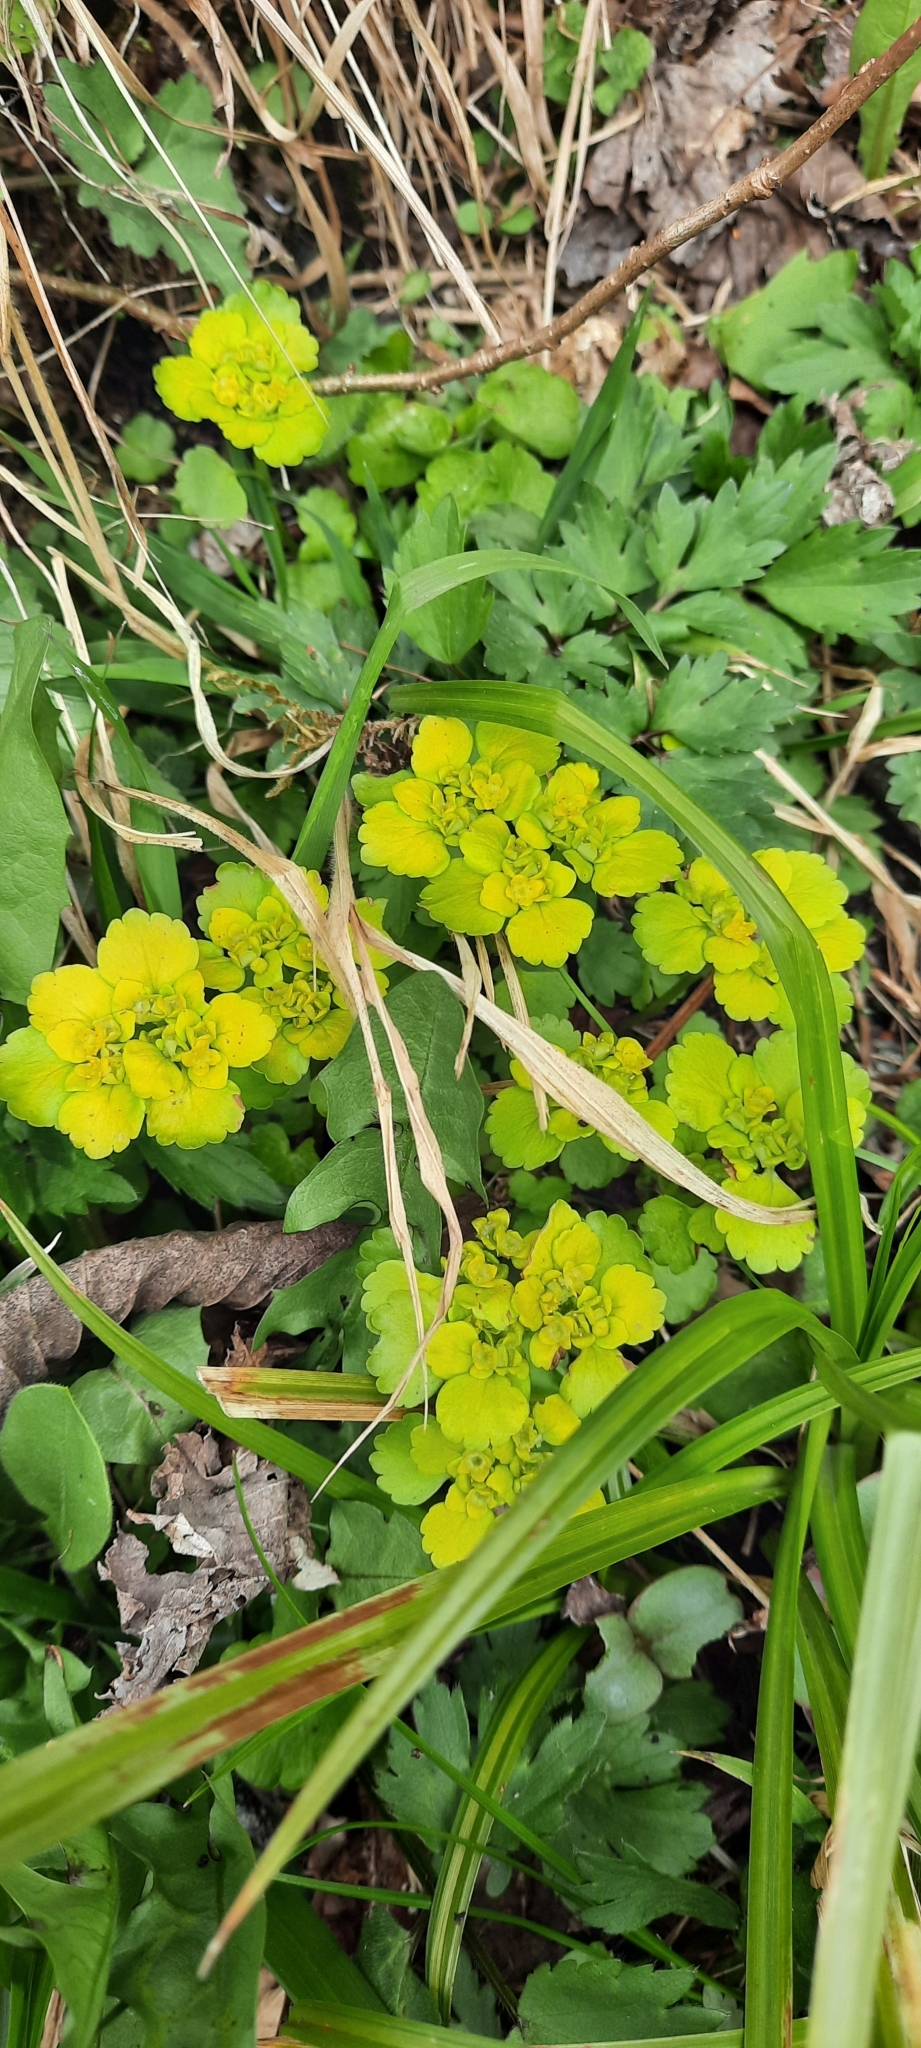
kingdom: Plantae
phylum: Tracheophyta
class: Magnoliopsida
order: Saxifragales
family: Saxifragaceae
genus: Chrysosplenium
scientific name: Chrysosplenium alternifolium
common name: Alternate-leaved golden-saxifrage
